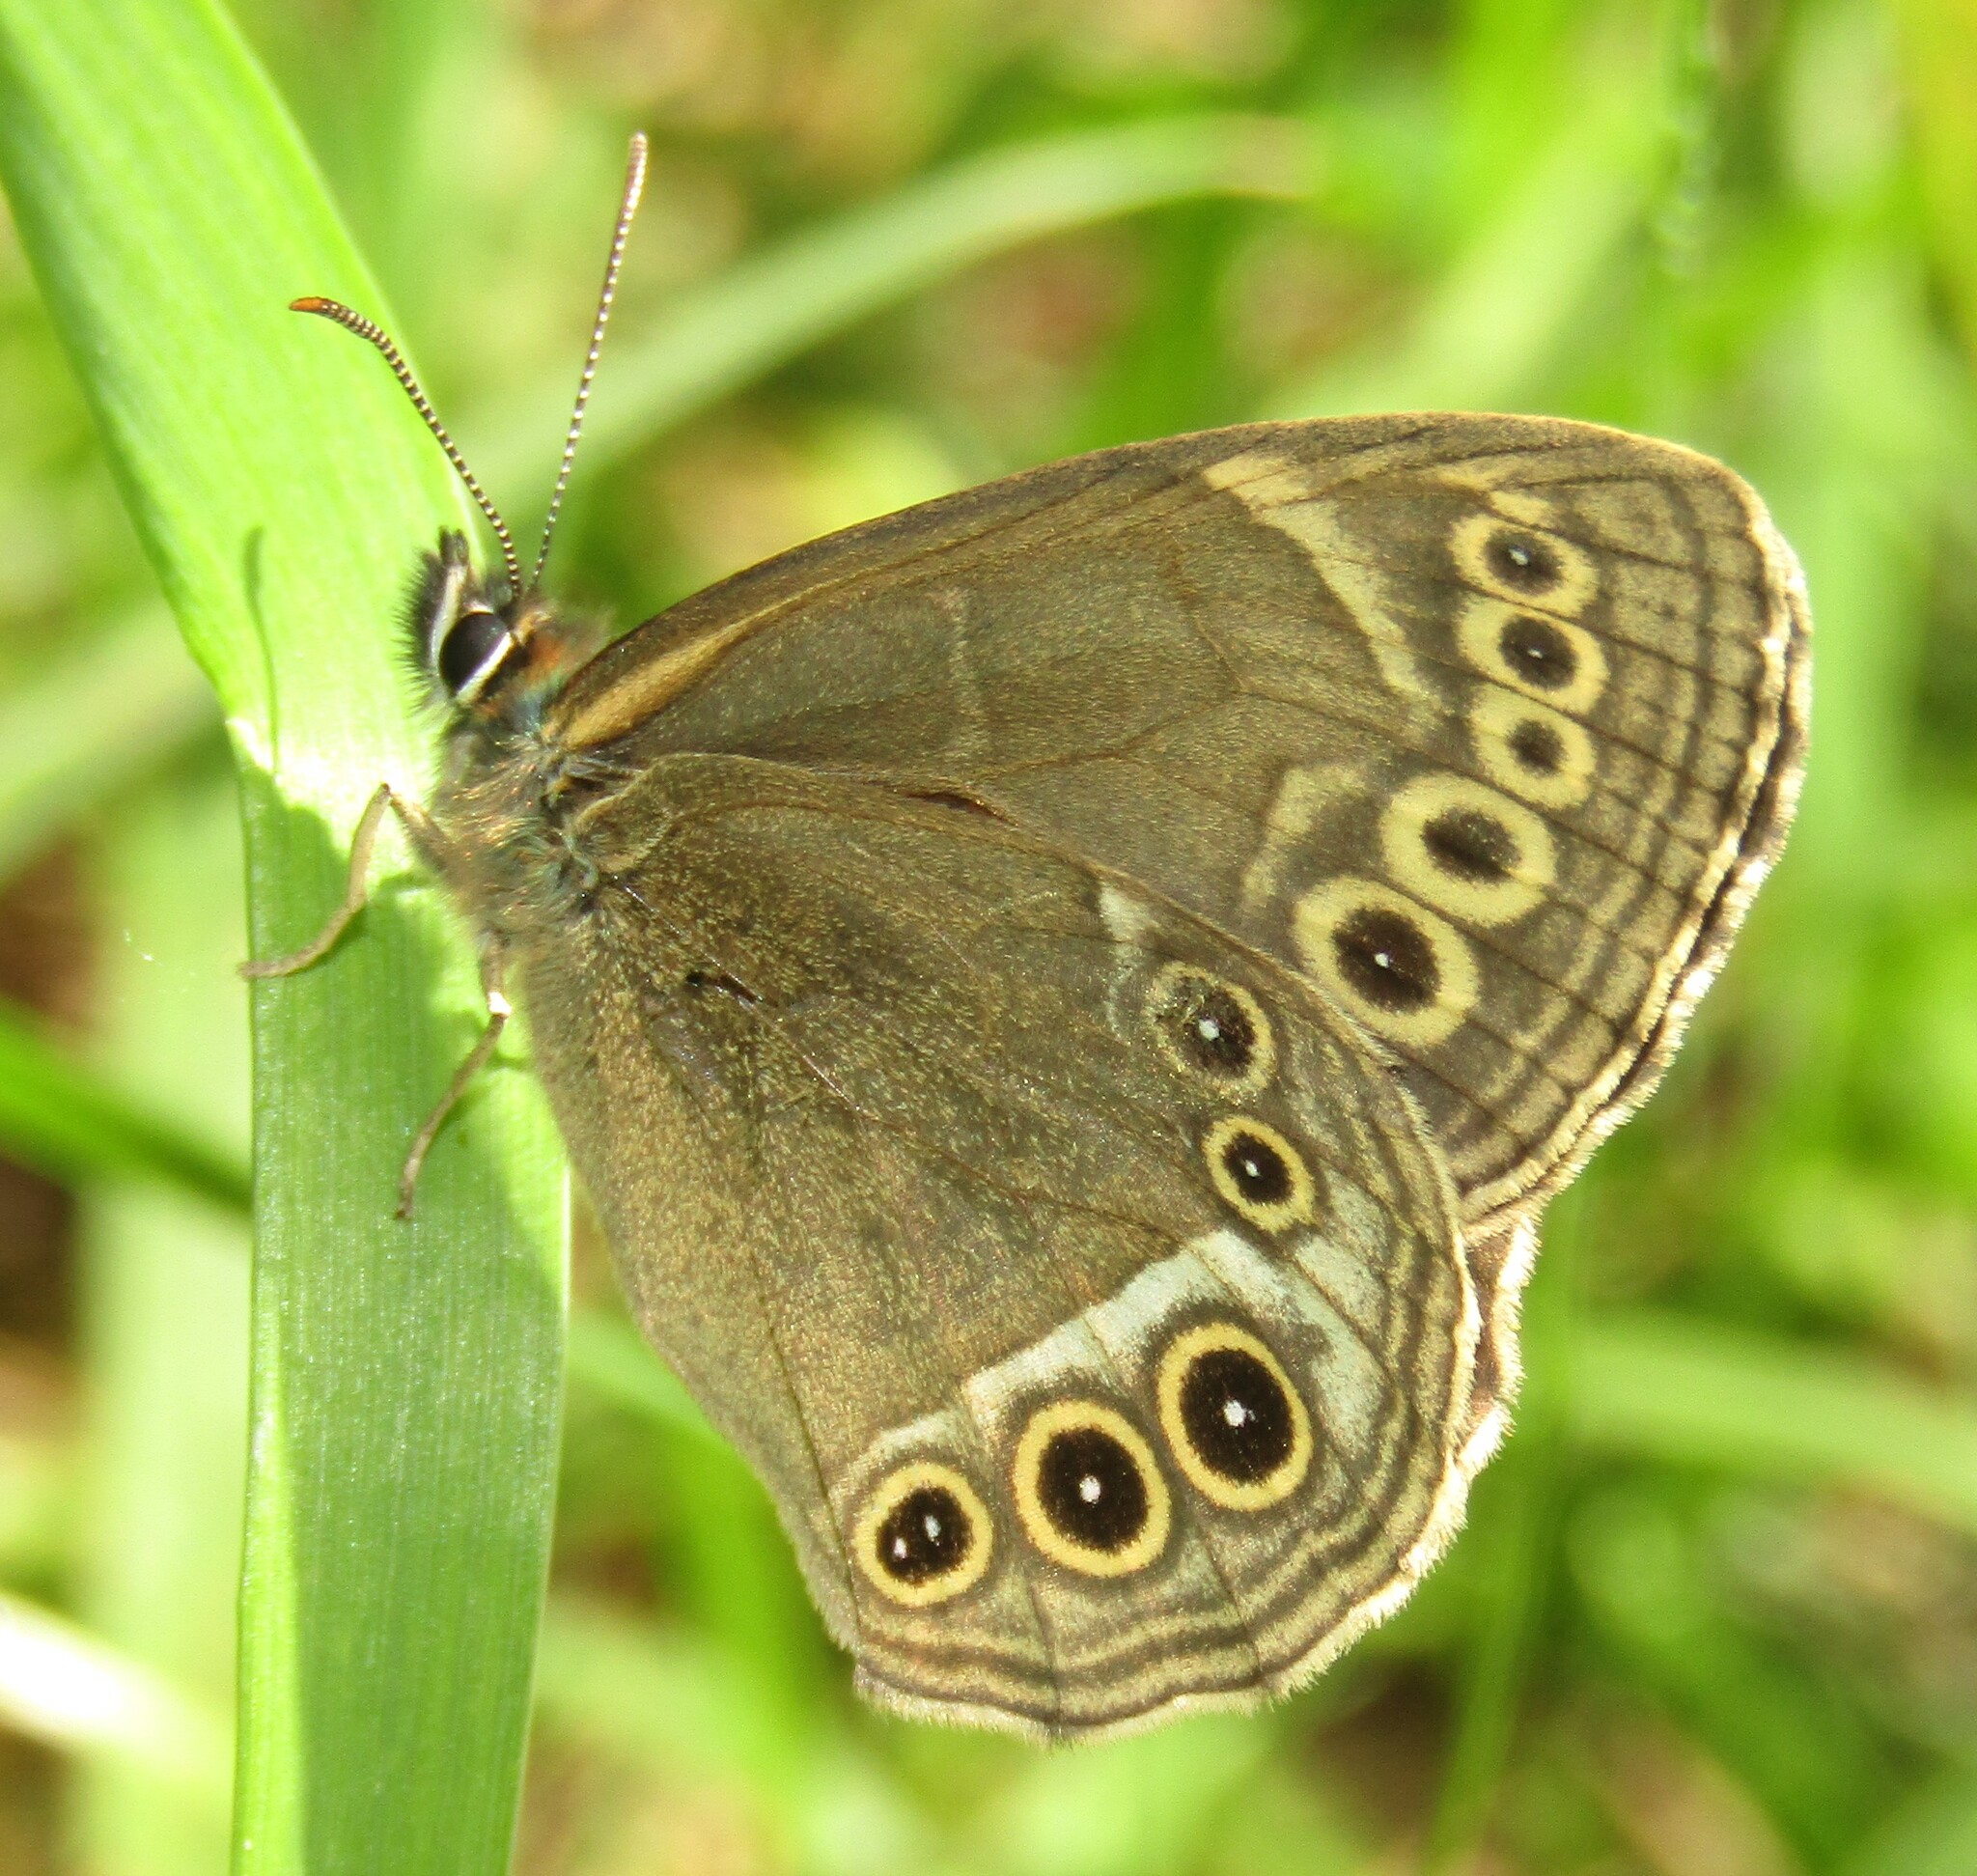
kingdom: Animalia
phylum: Arthropoda
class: Insecta
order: Lepidoptera
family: Nymphalidae
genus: Pararge
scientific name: Pararge Lopinga achine
